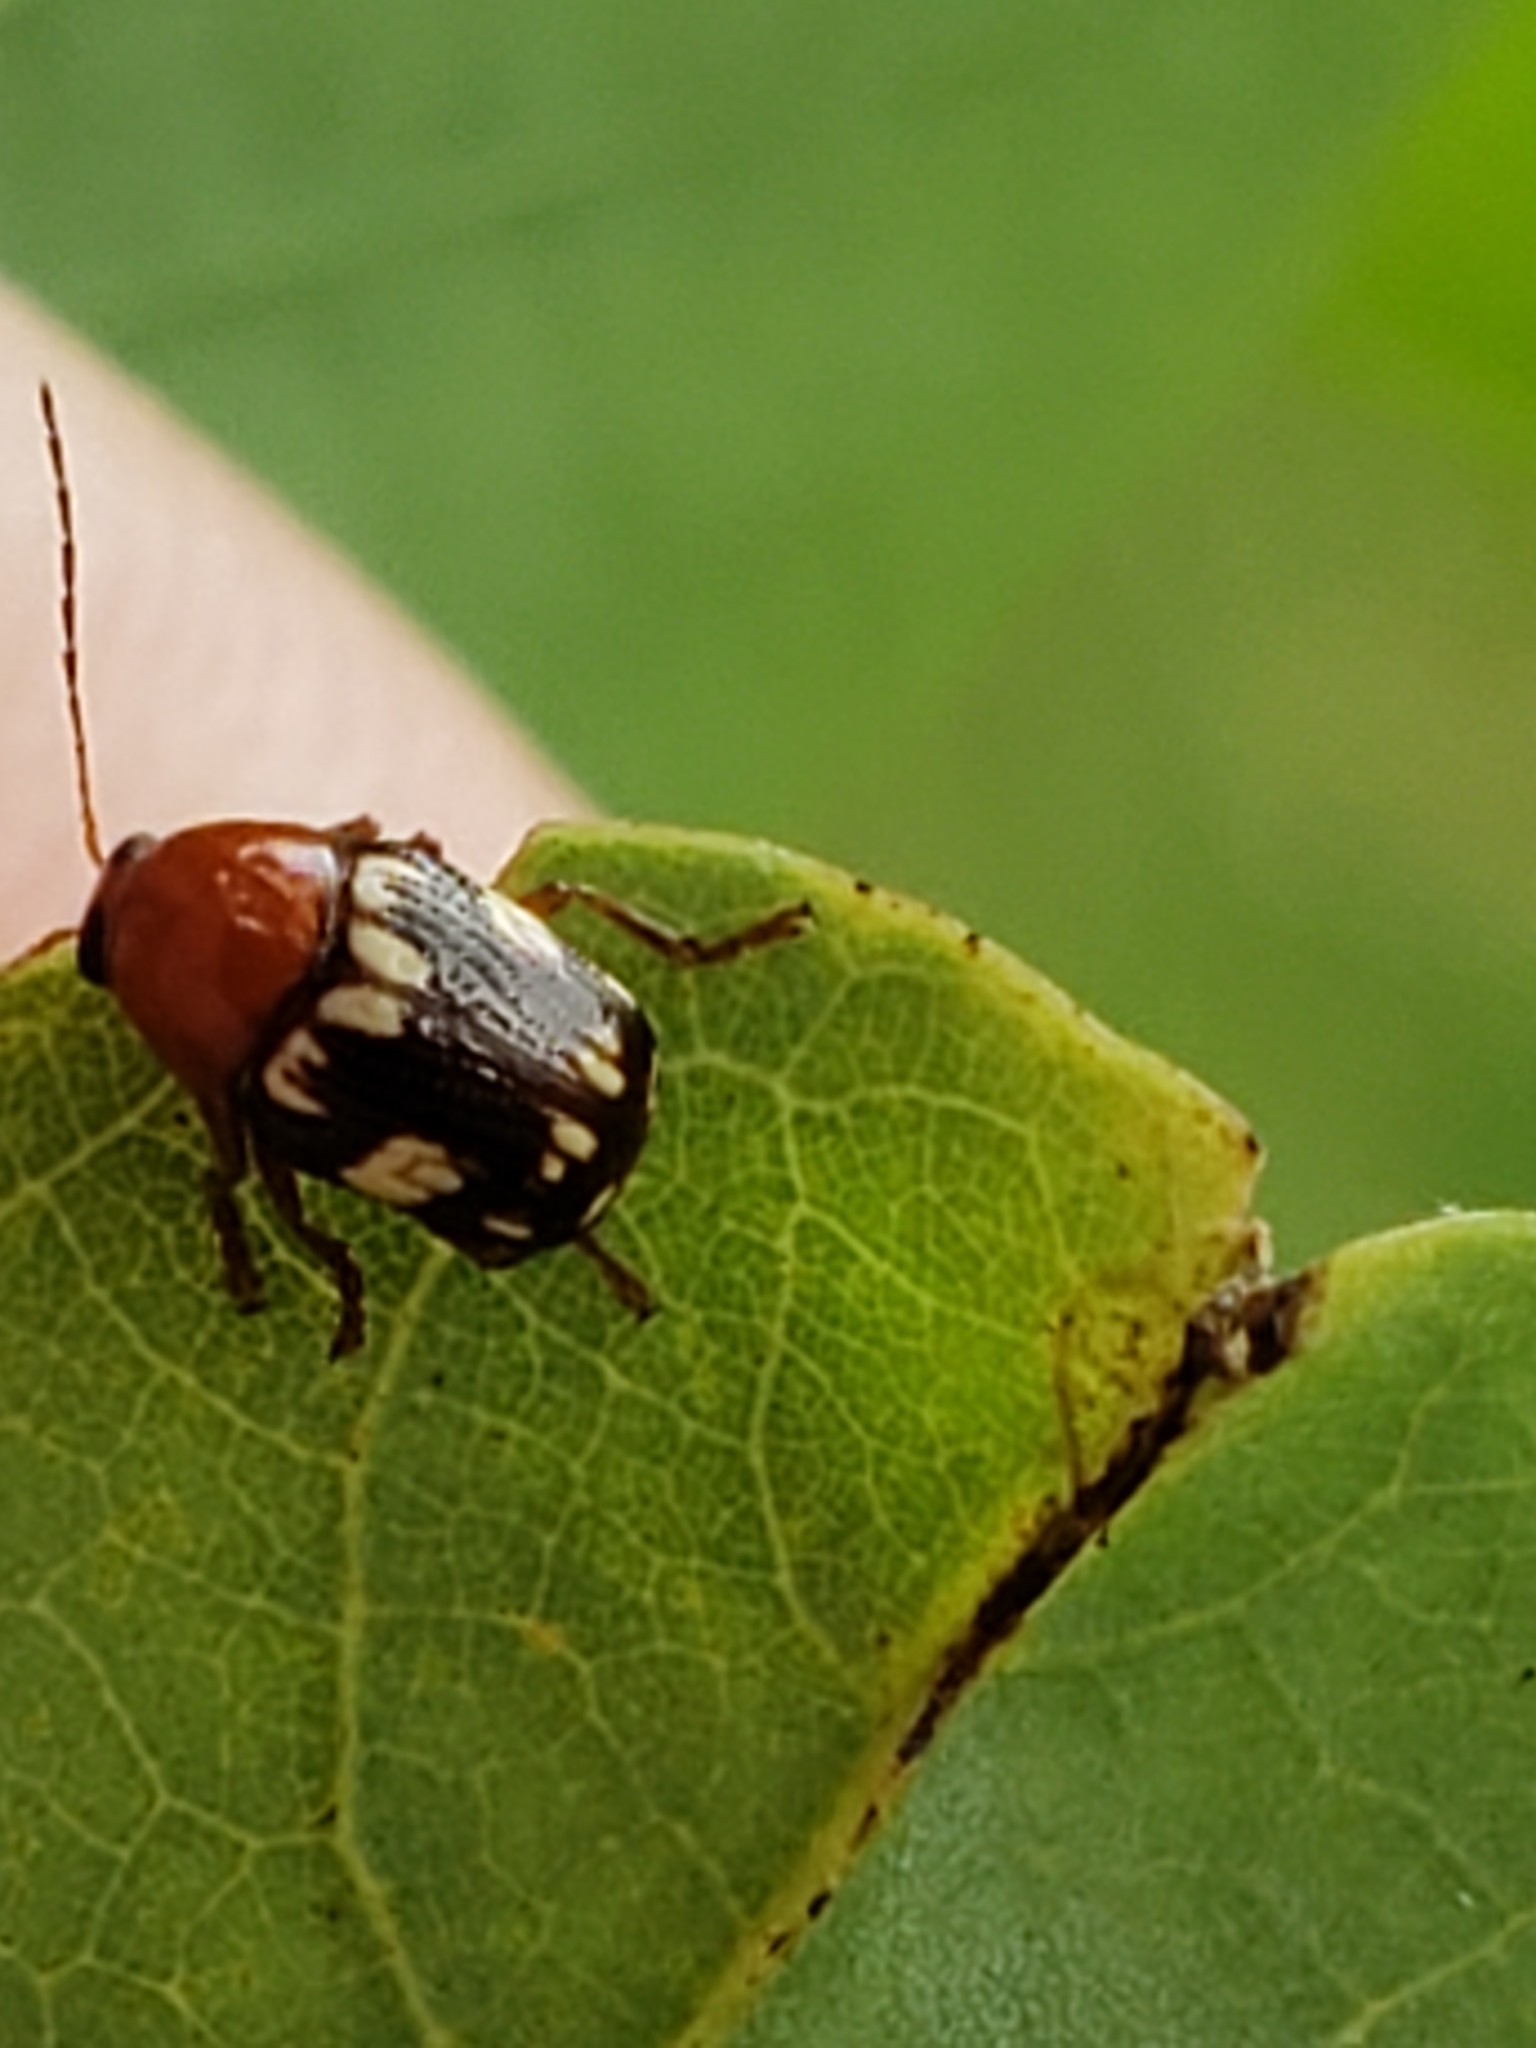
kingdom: Animalia
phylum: Arthropoda
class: Insecta
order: Coleoptera
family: Chrysomelidae
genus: Cryptocephalus
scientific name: Cryptocephalus badius
